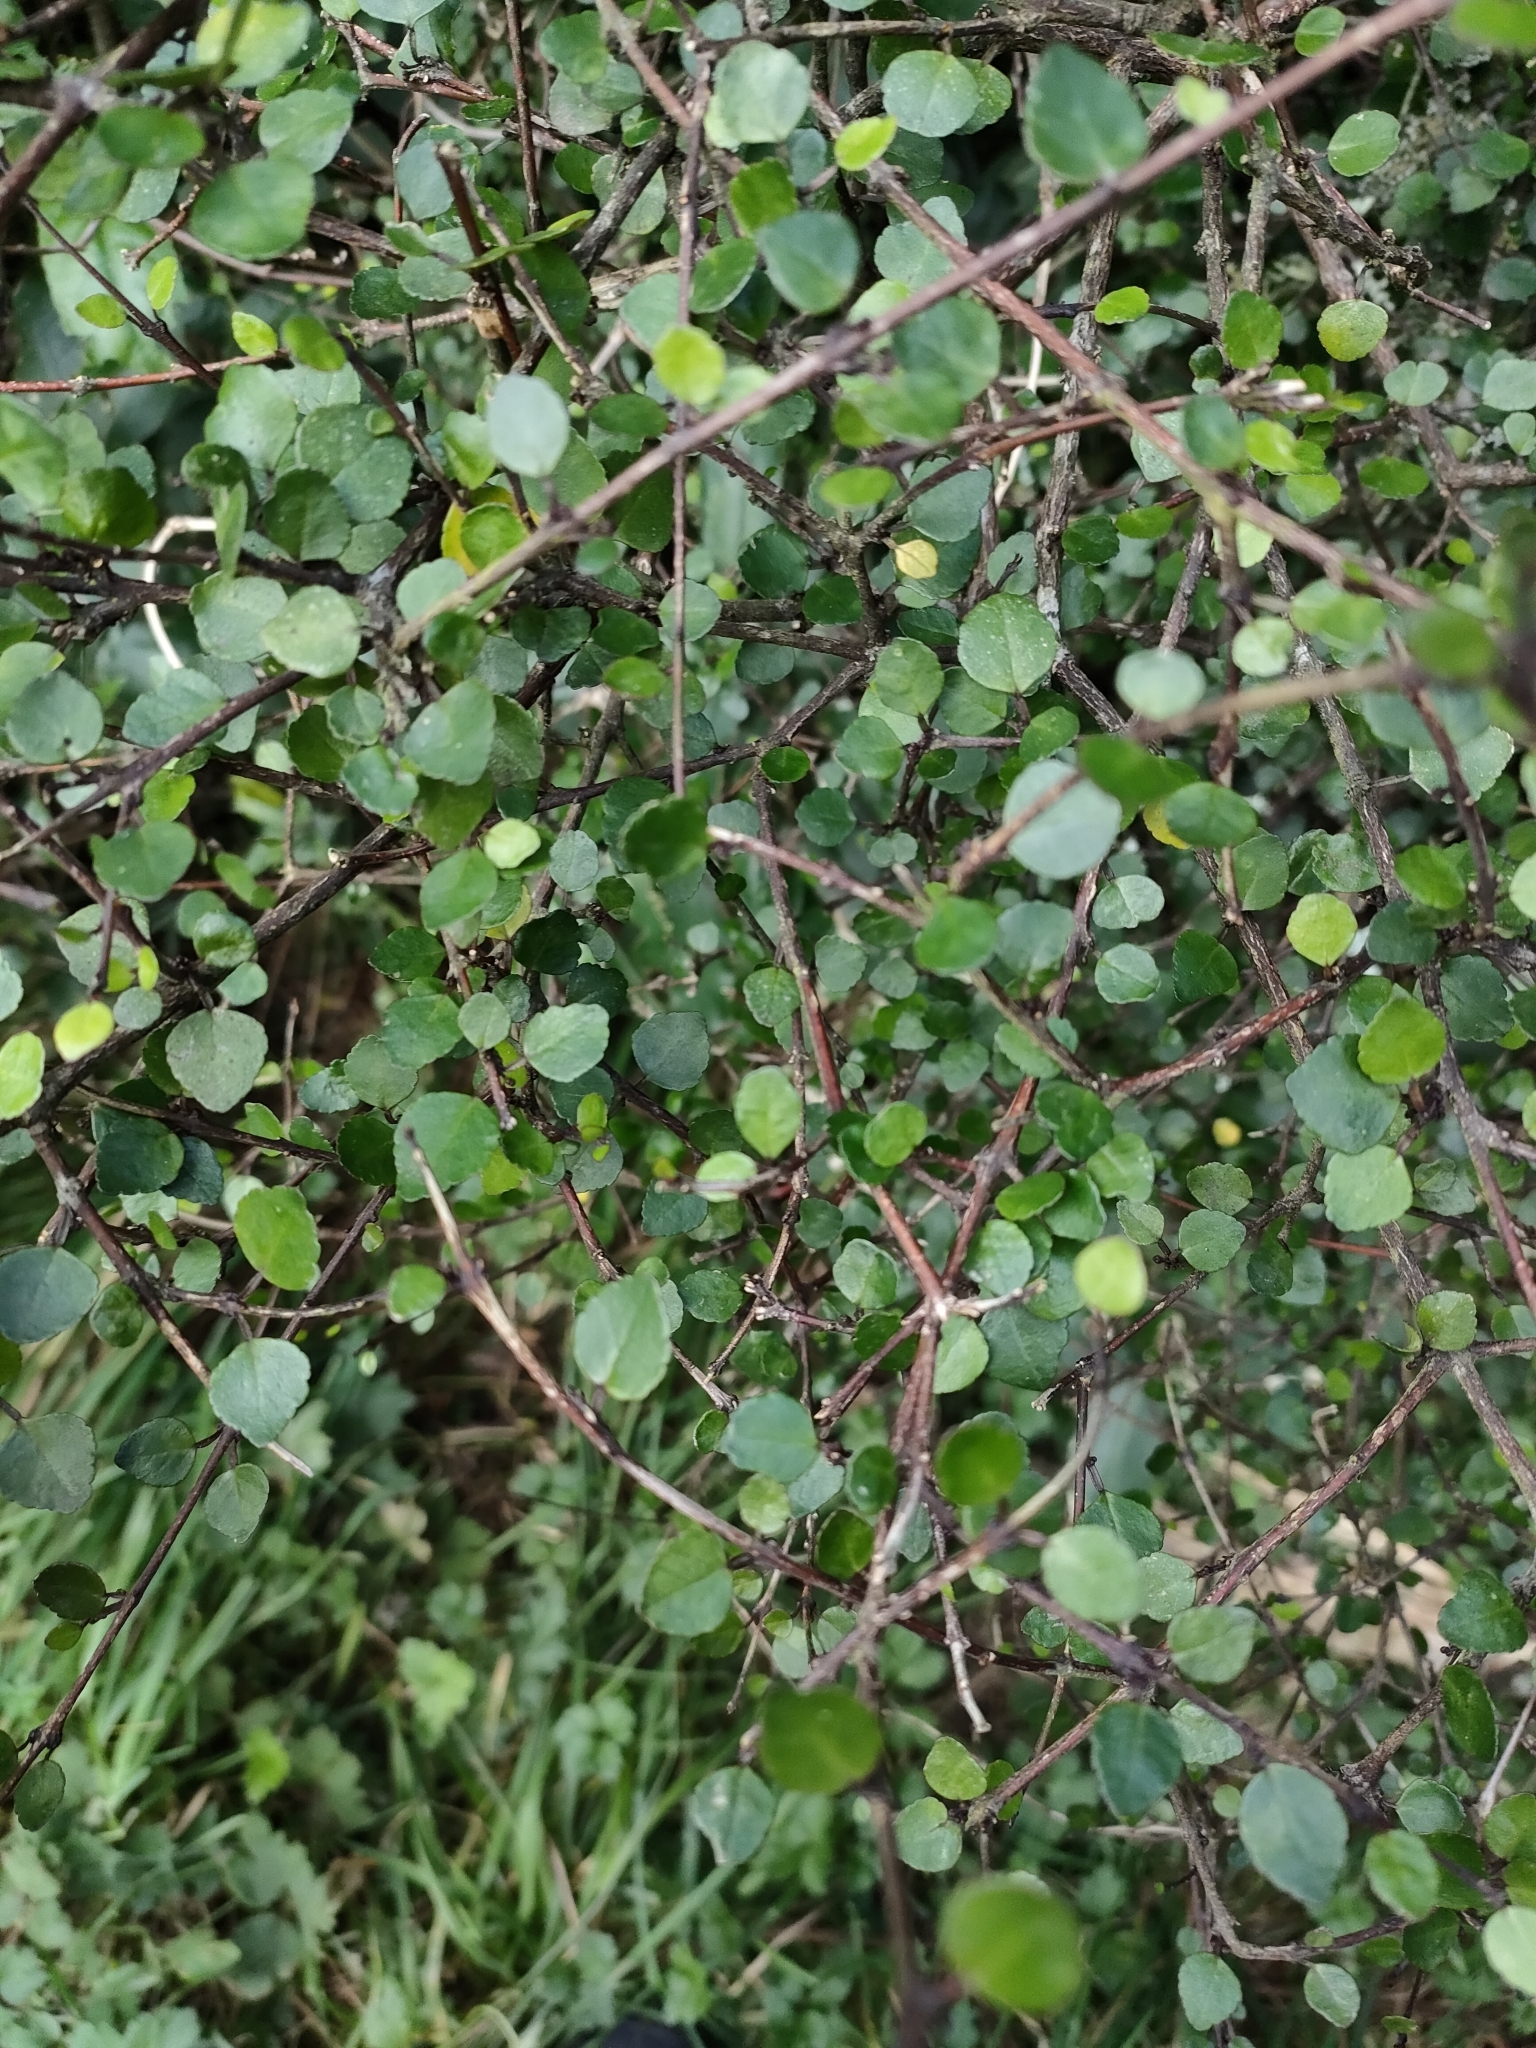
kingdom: Plantae
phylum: Tracheophyta
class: Magnoliopsida
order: Sapindales
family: Rutaceae
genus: Melicope
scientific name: Melicope simplex
